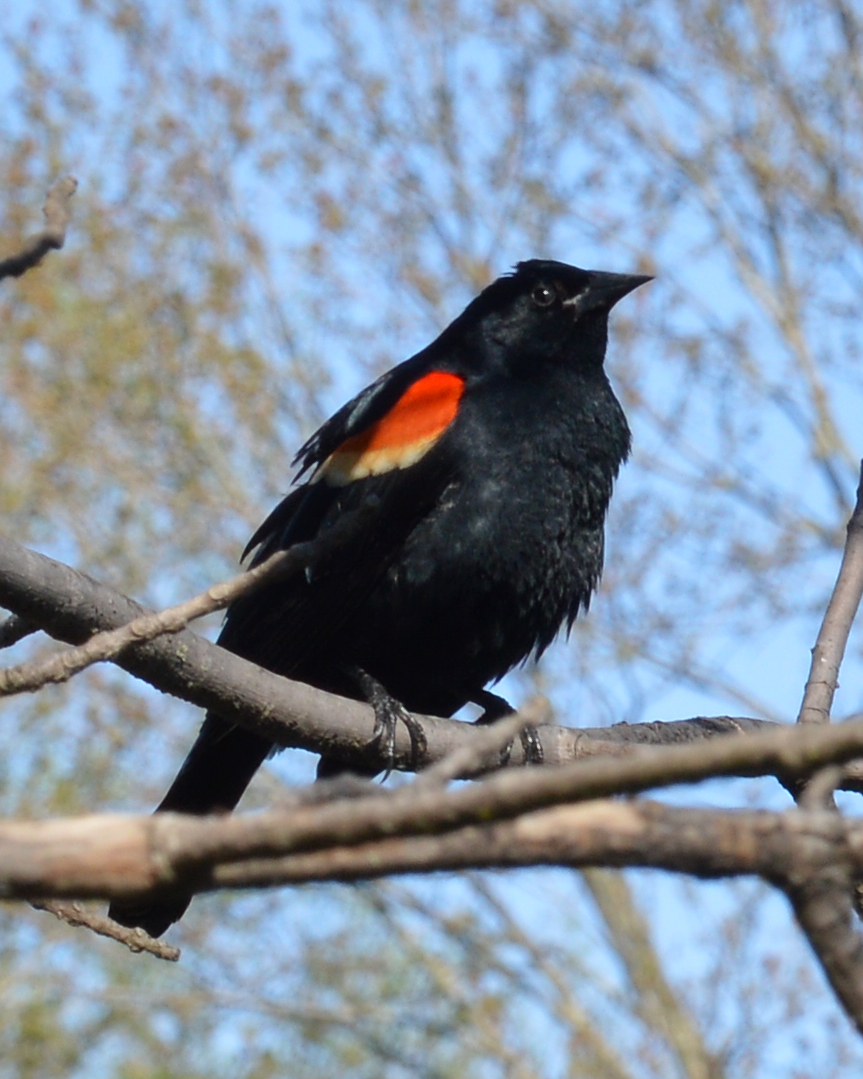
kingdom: Animalia
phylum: Chordata
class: Aves
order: Passeriformes
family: Icteridae
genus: Agelaius
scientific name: Agelaius phoeniceus
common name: Red-winged blackbird
